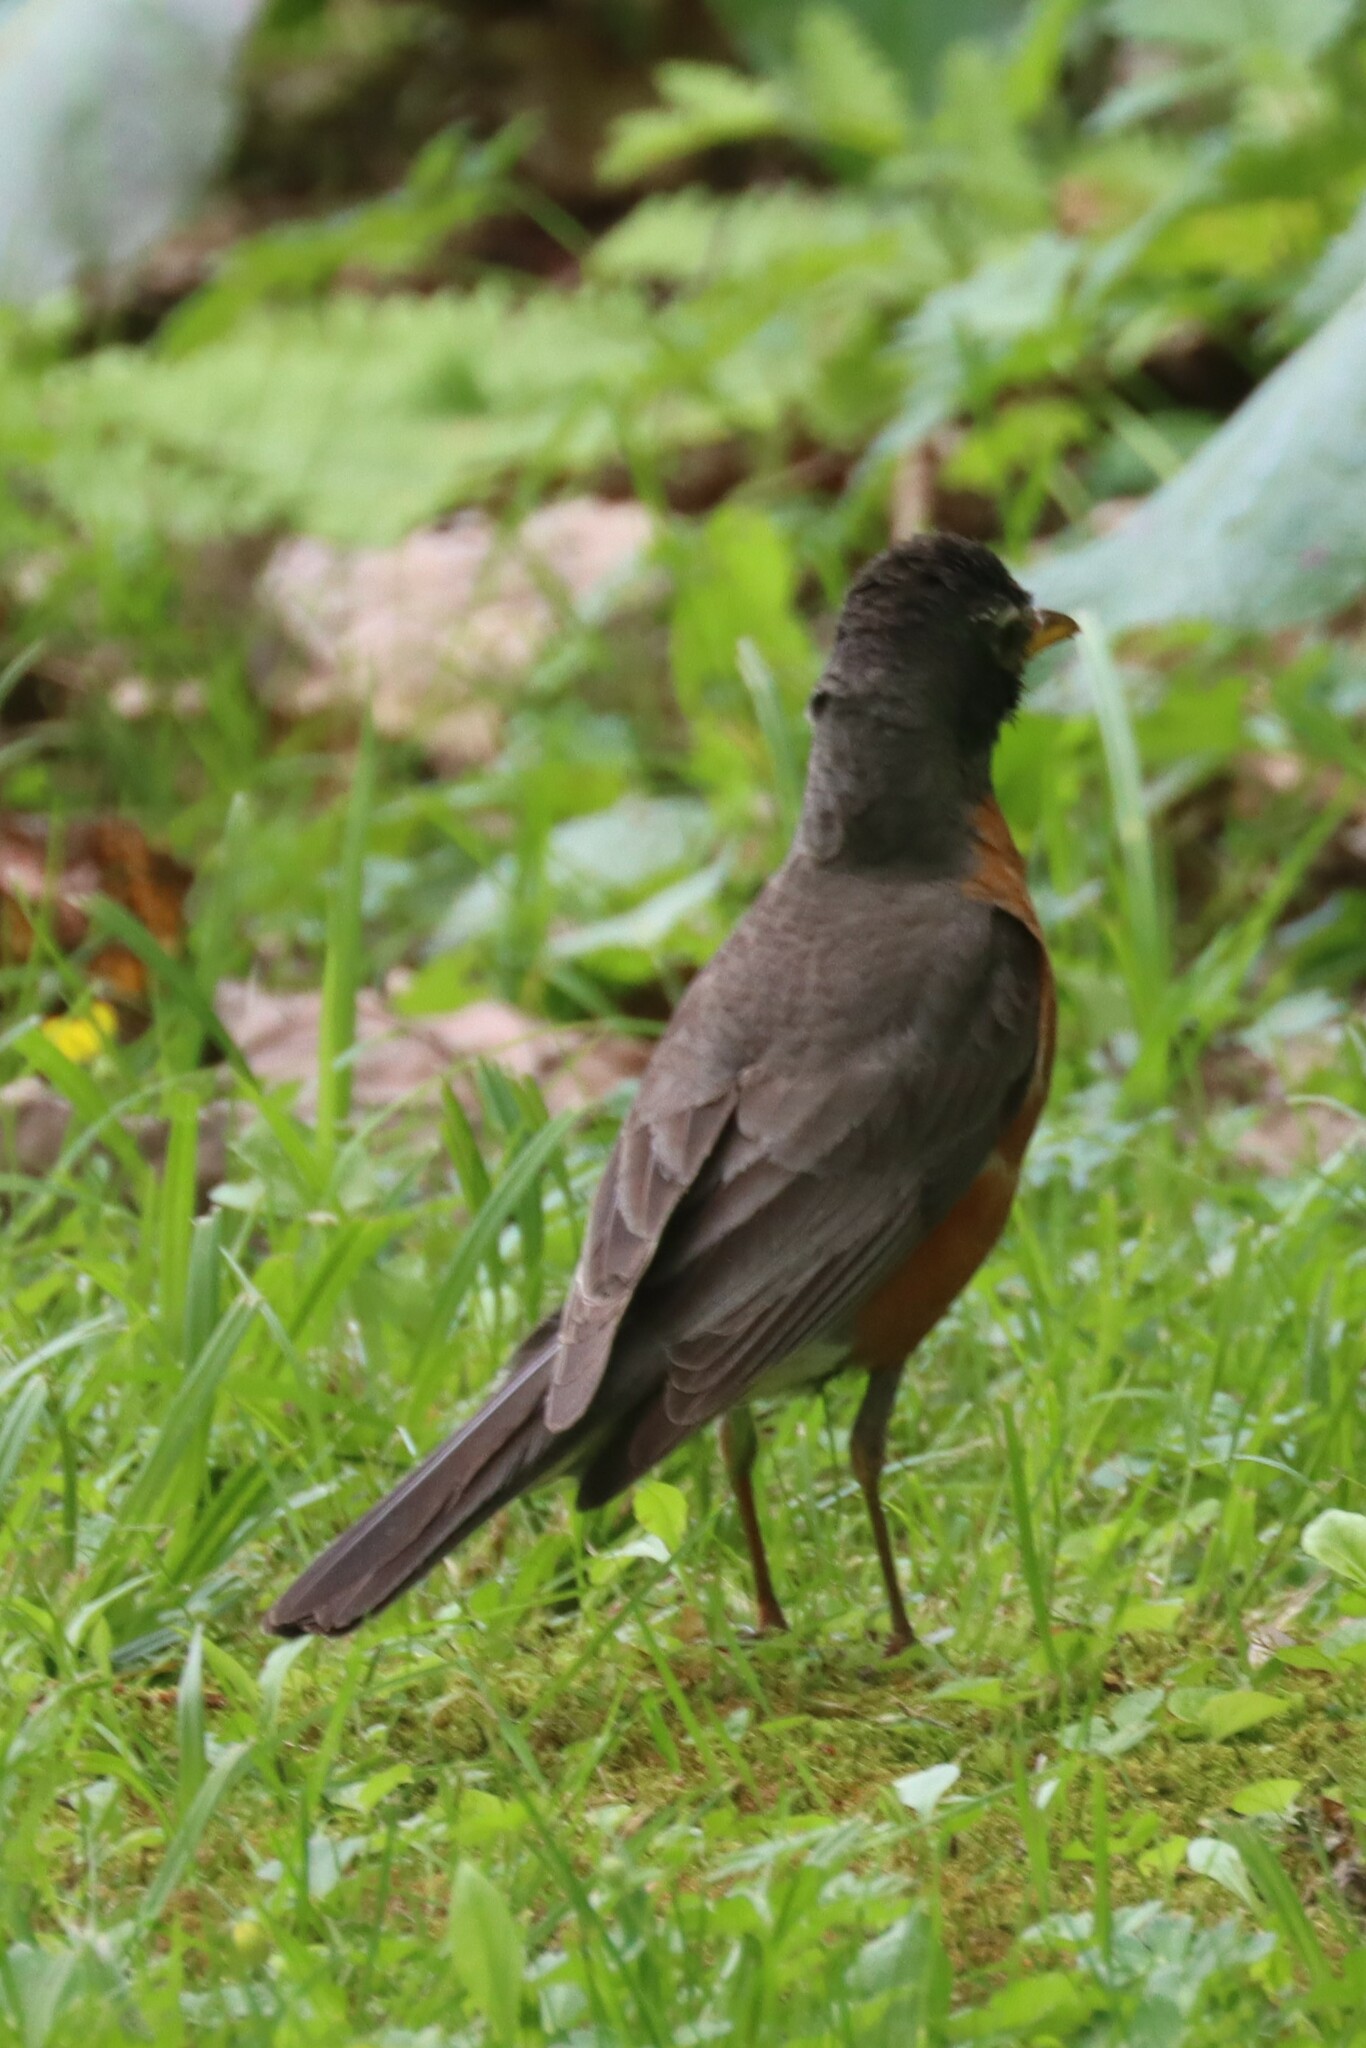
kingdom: Animalia
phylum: Chordata
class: Aves
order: Passeriformes
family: Turdidae
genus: Turdus
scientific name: Turdus migratorius
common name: American robin
